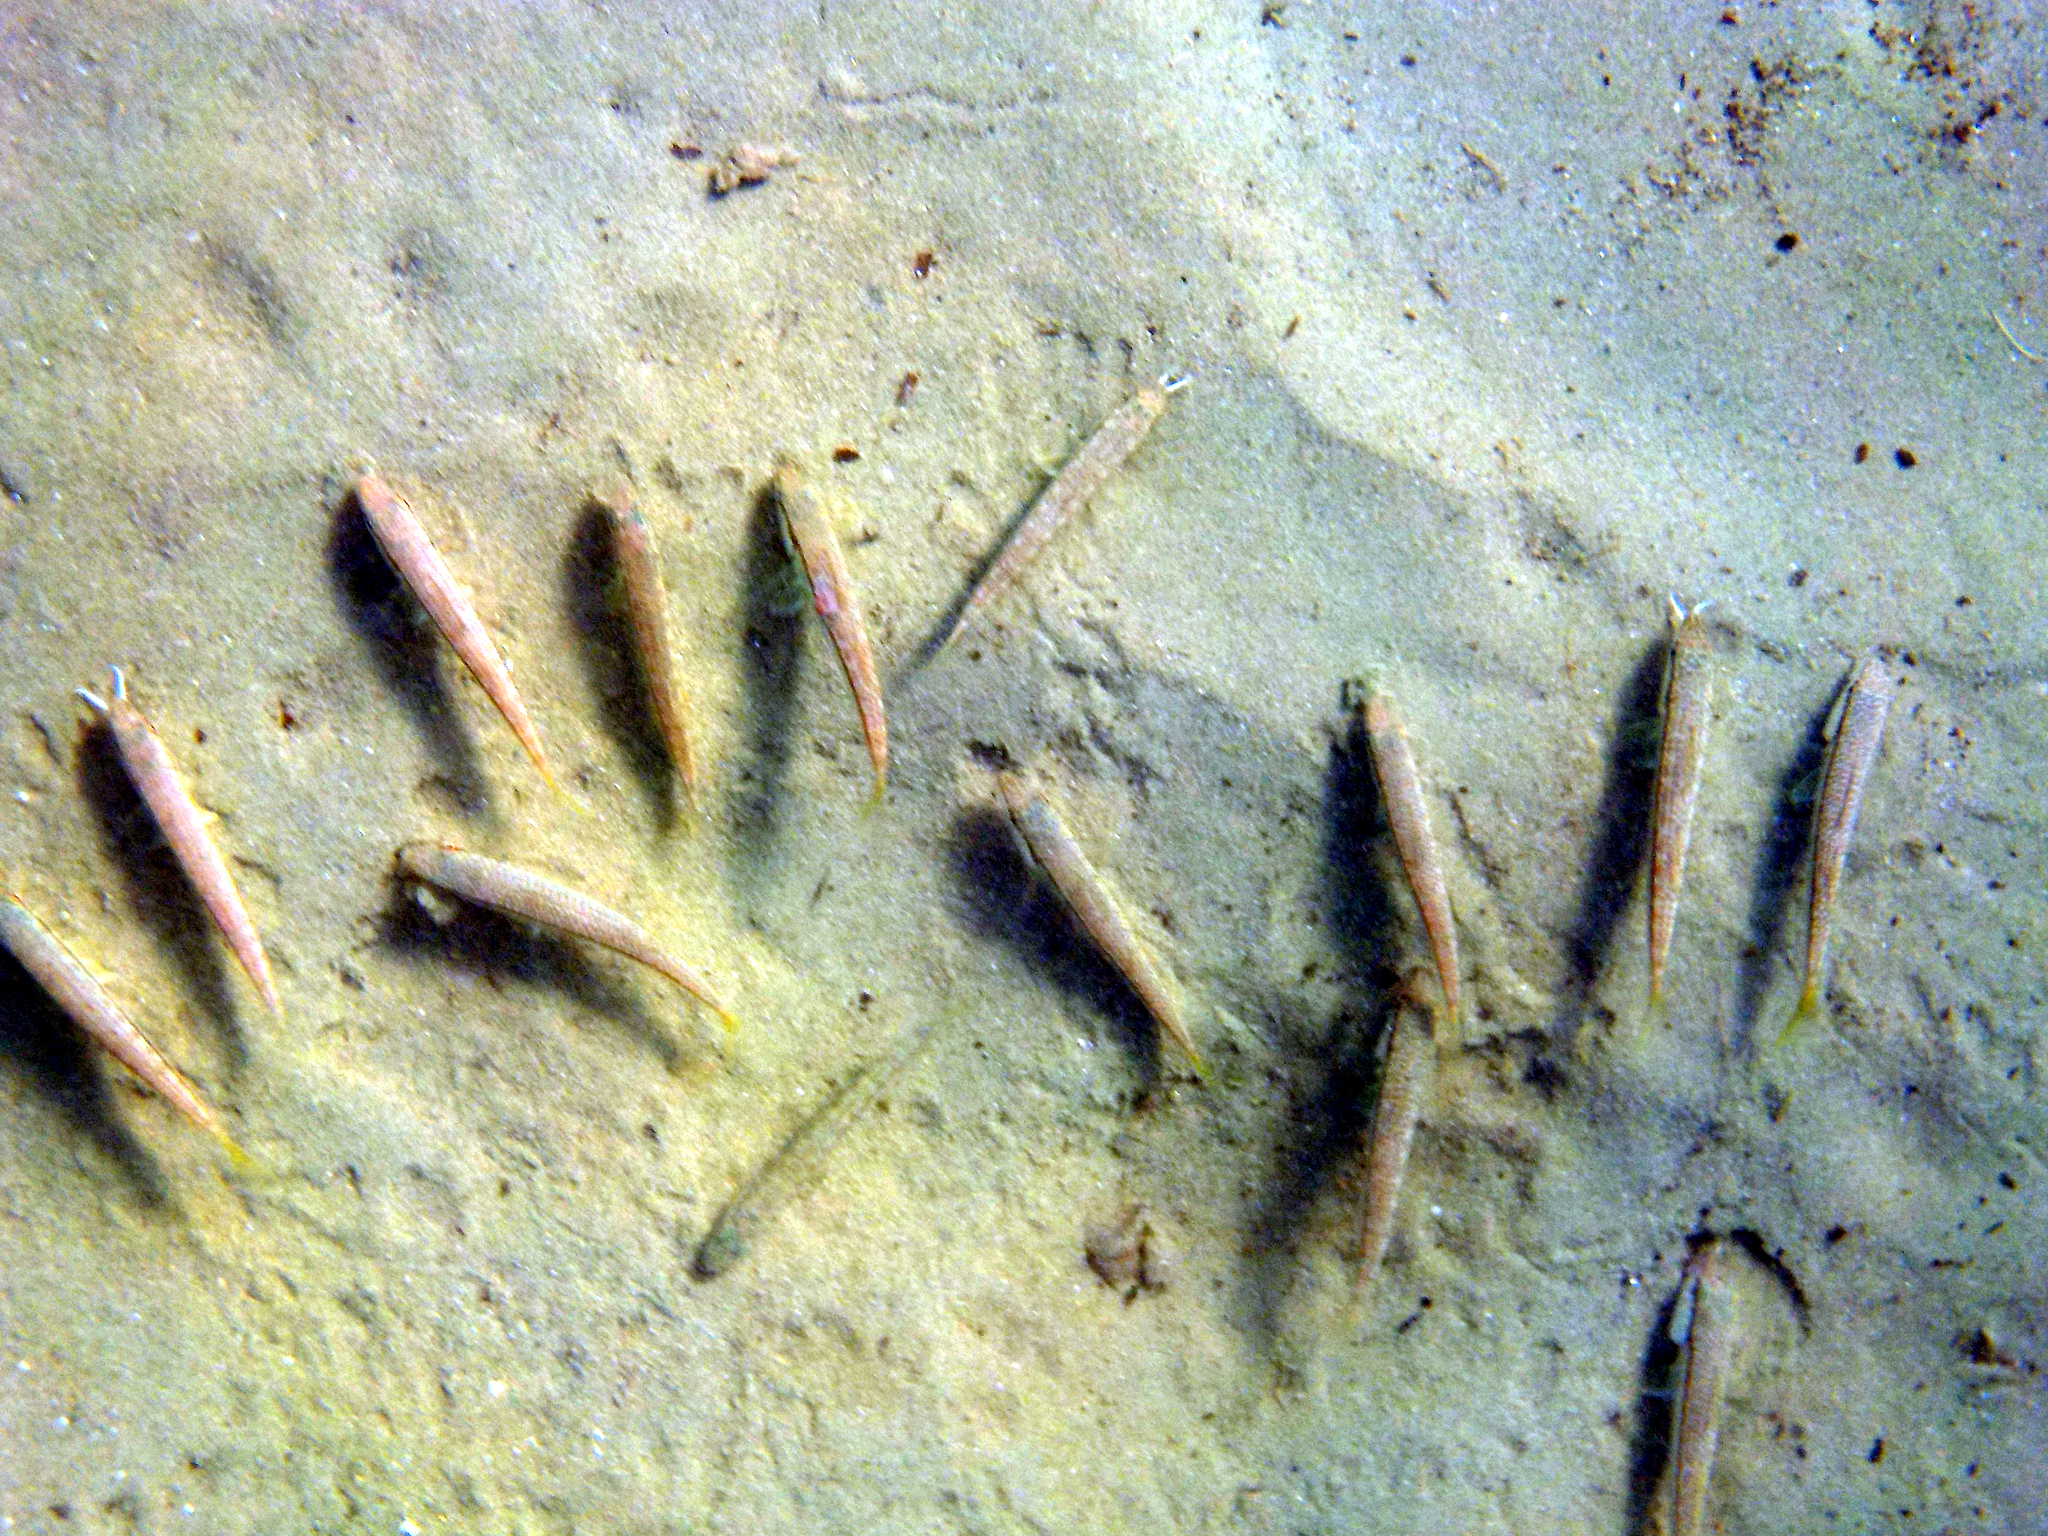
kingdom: Animalia
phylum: Chordata
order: Perciformes
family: Mullidae
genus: Mullus
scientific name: Mullus
